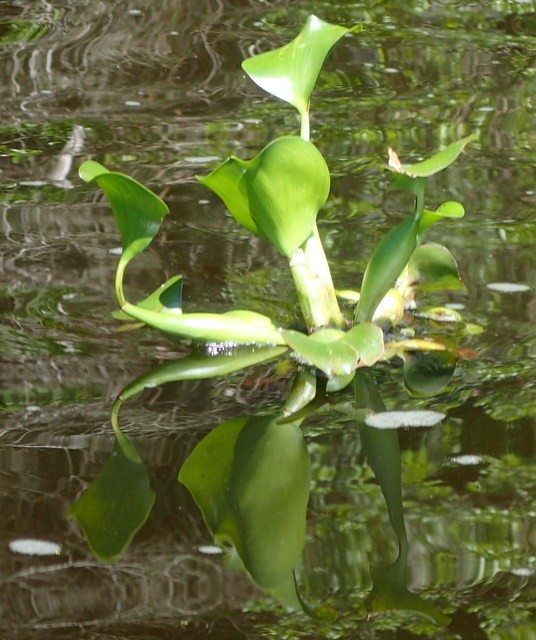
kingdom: Plantae
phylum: Tracheophyta
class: Liliopsida
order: Commelinales
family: Pontederiaceae
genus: Pontederia
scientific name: Pontederia crassipes
